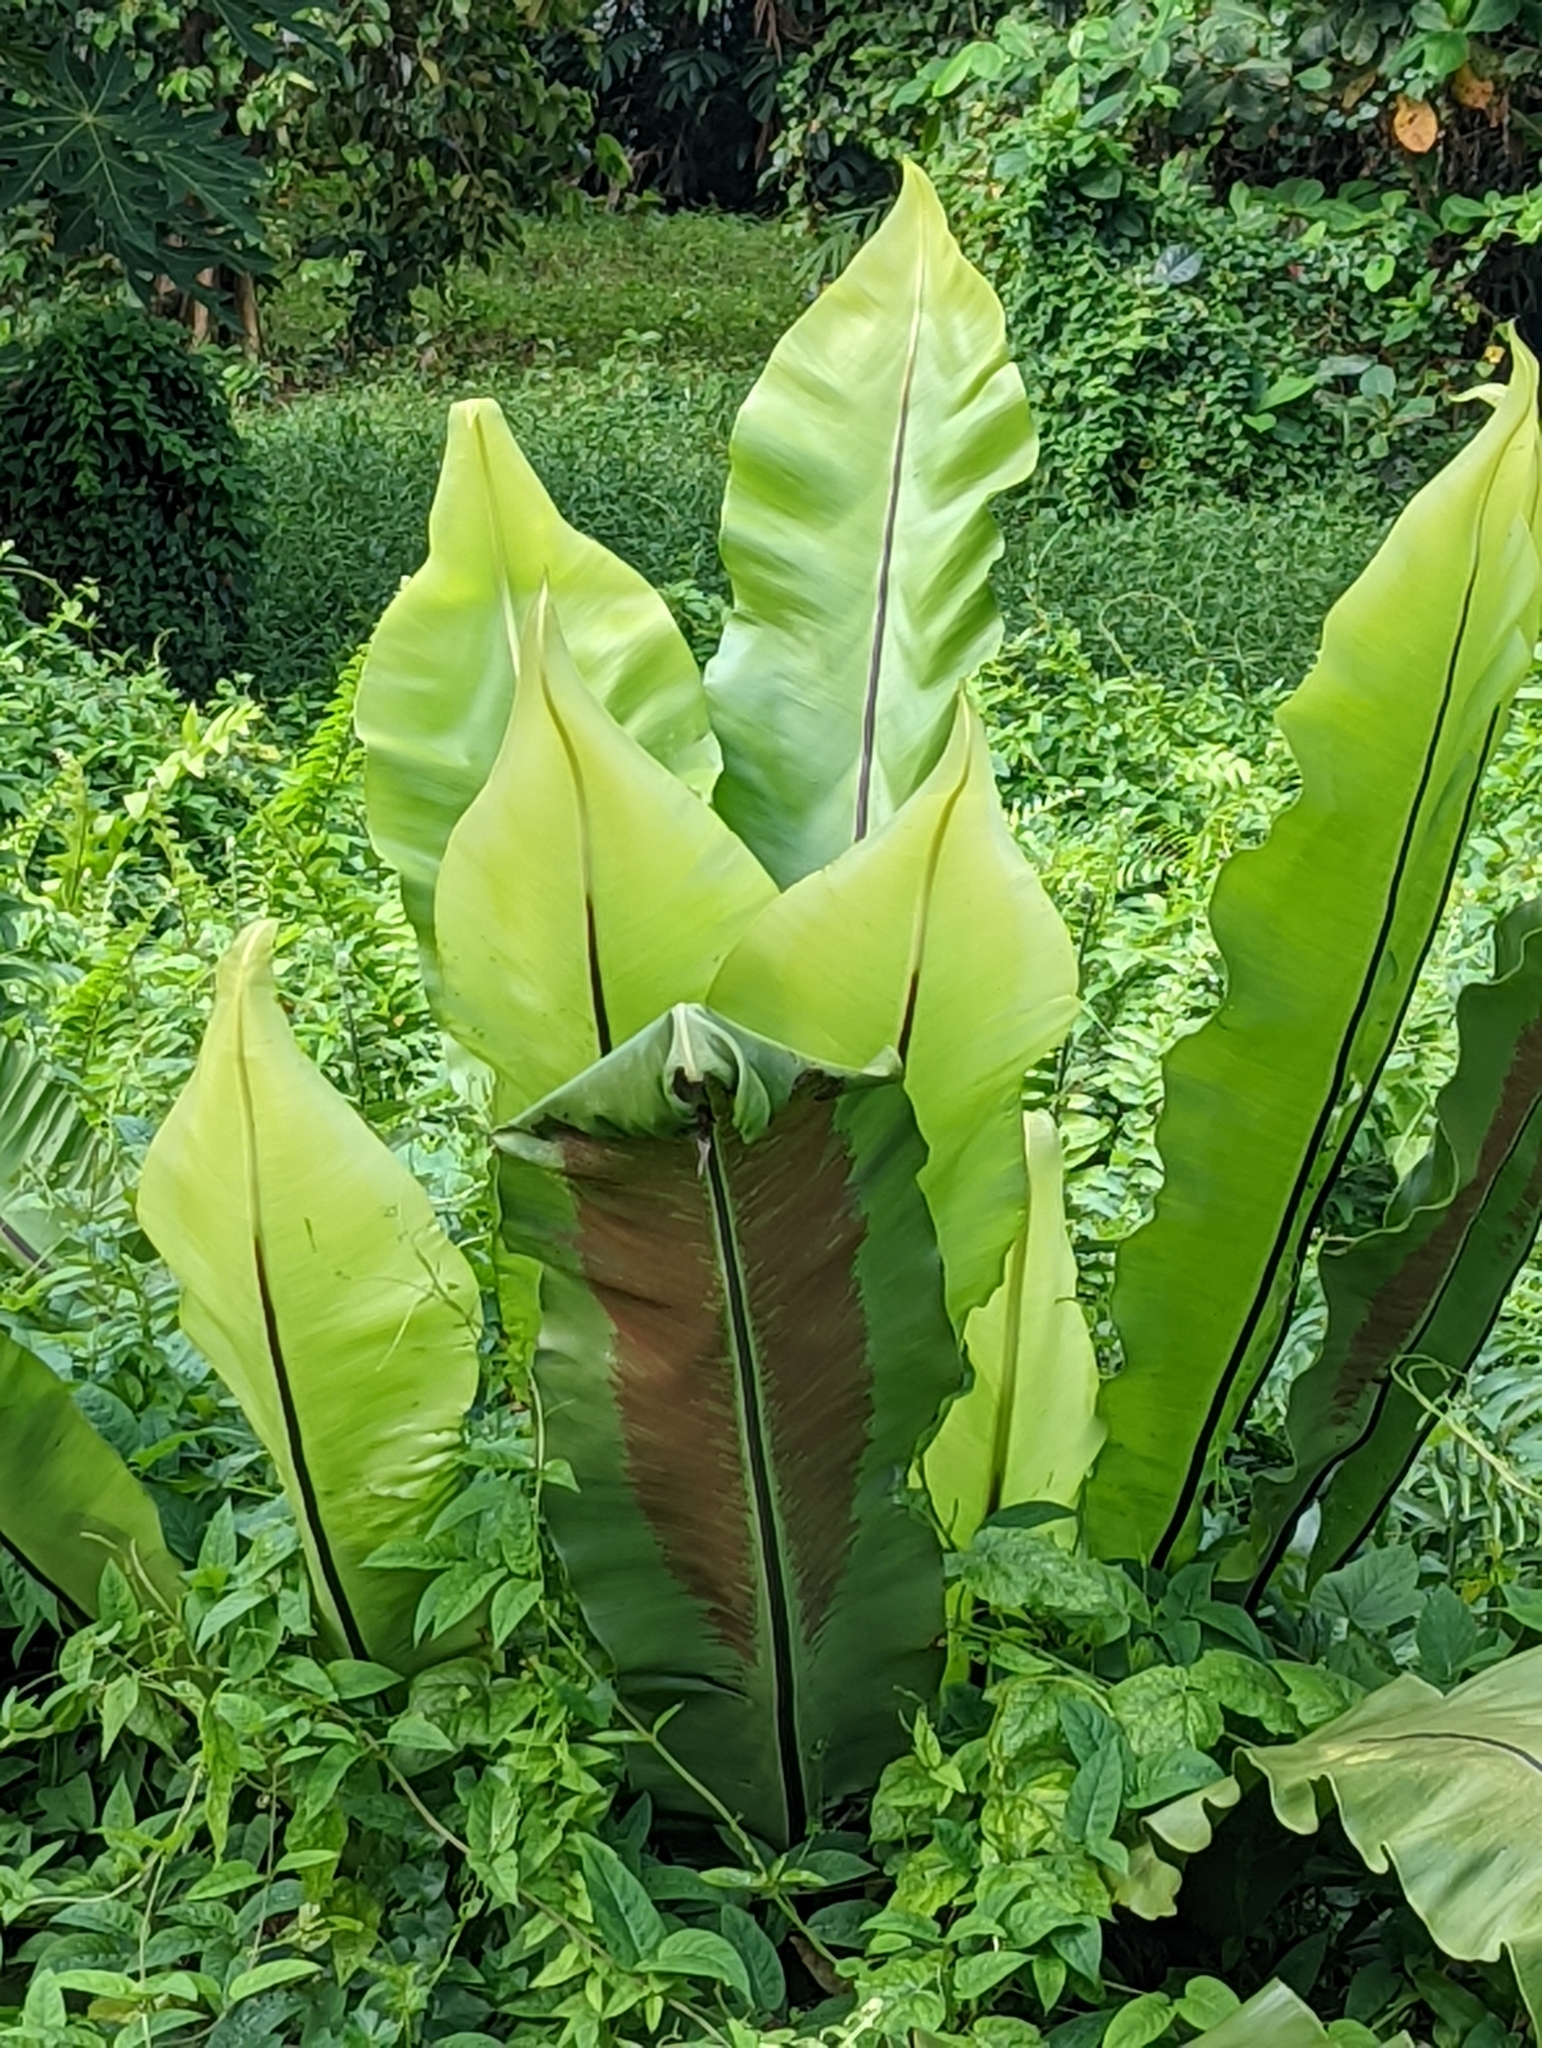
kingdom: Plantae
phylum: Tracheophyta
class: Polypodiopsida
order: Polypodiales
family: Aspleniaceae
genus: Asplenium
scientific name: Asplenium nidus
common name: Bird's-nest fern
